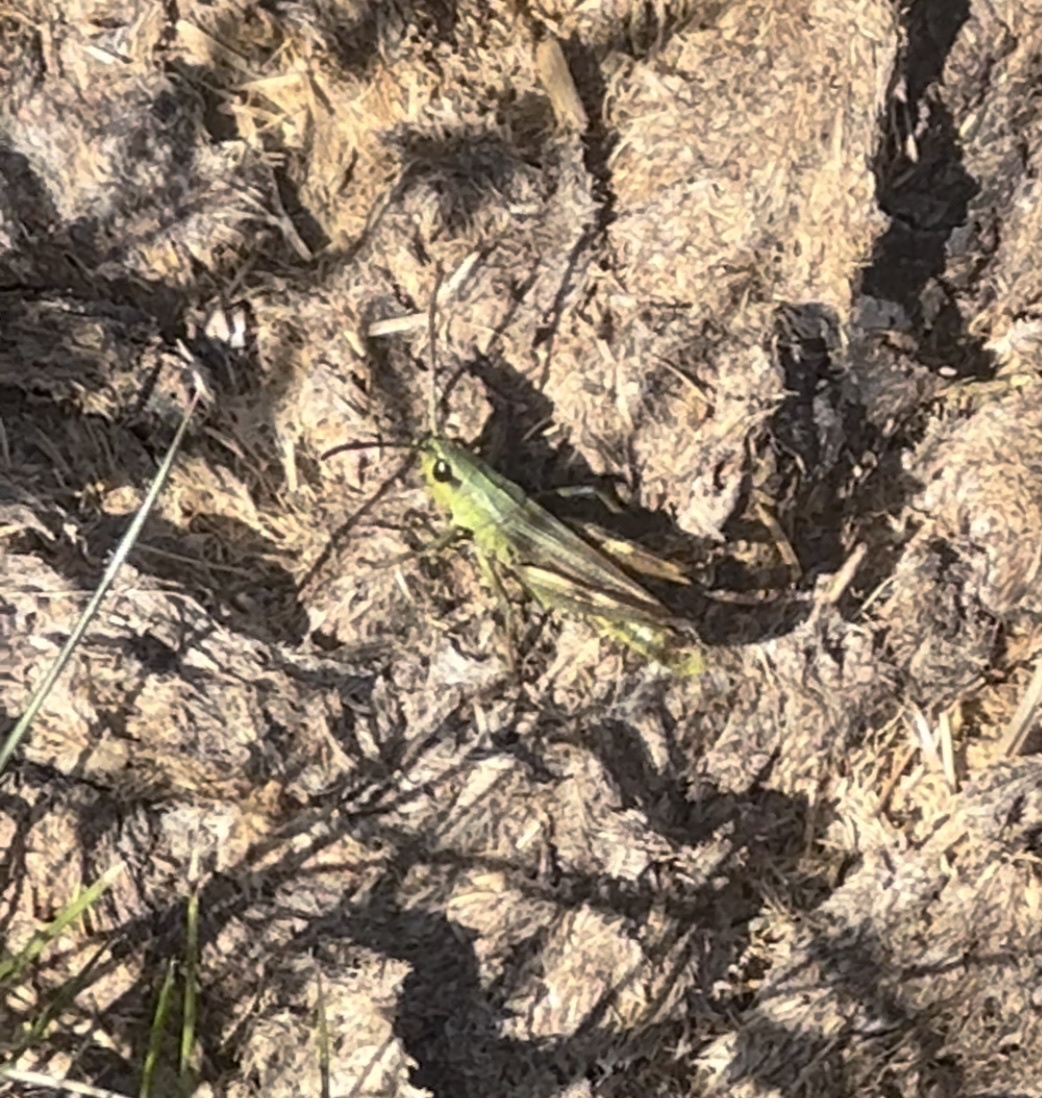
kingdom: Animalia
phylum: Arthropoda
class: Insecta
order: Orthoptera
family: Acrididae
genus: Pseudochorthippus
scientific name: Pseudochorthippus parallelus
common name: Meadow grasshopper
